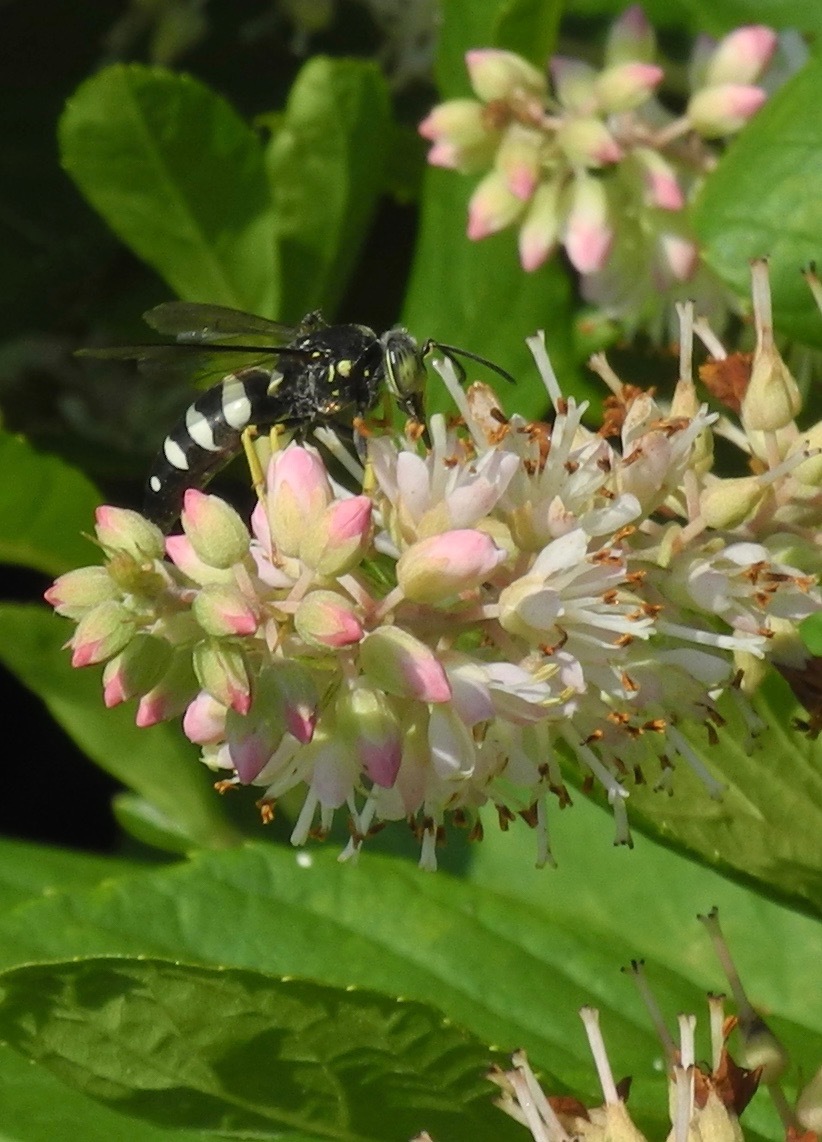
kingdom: Plantae
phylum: Tracheophyta
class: Magnoliopsida
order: Ericales
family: Clethraceae
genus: Clethra
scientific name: Clethra acuminata
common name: Mountain sweet pepperbush
